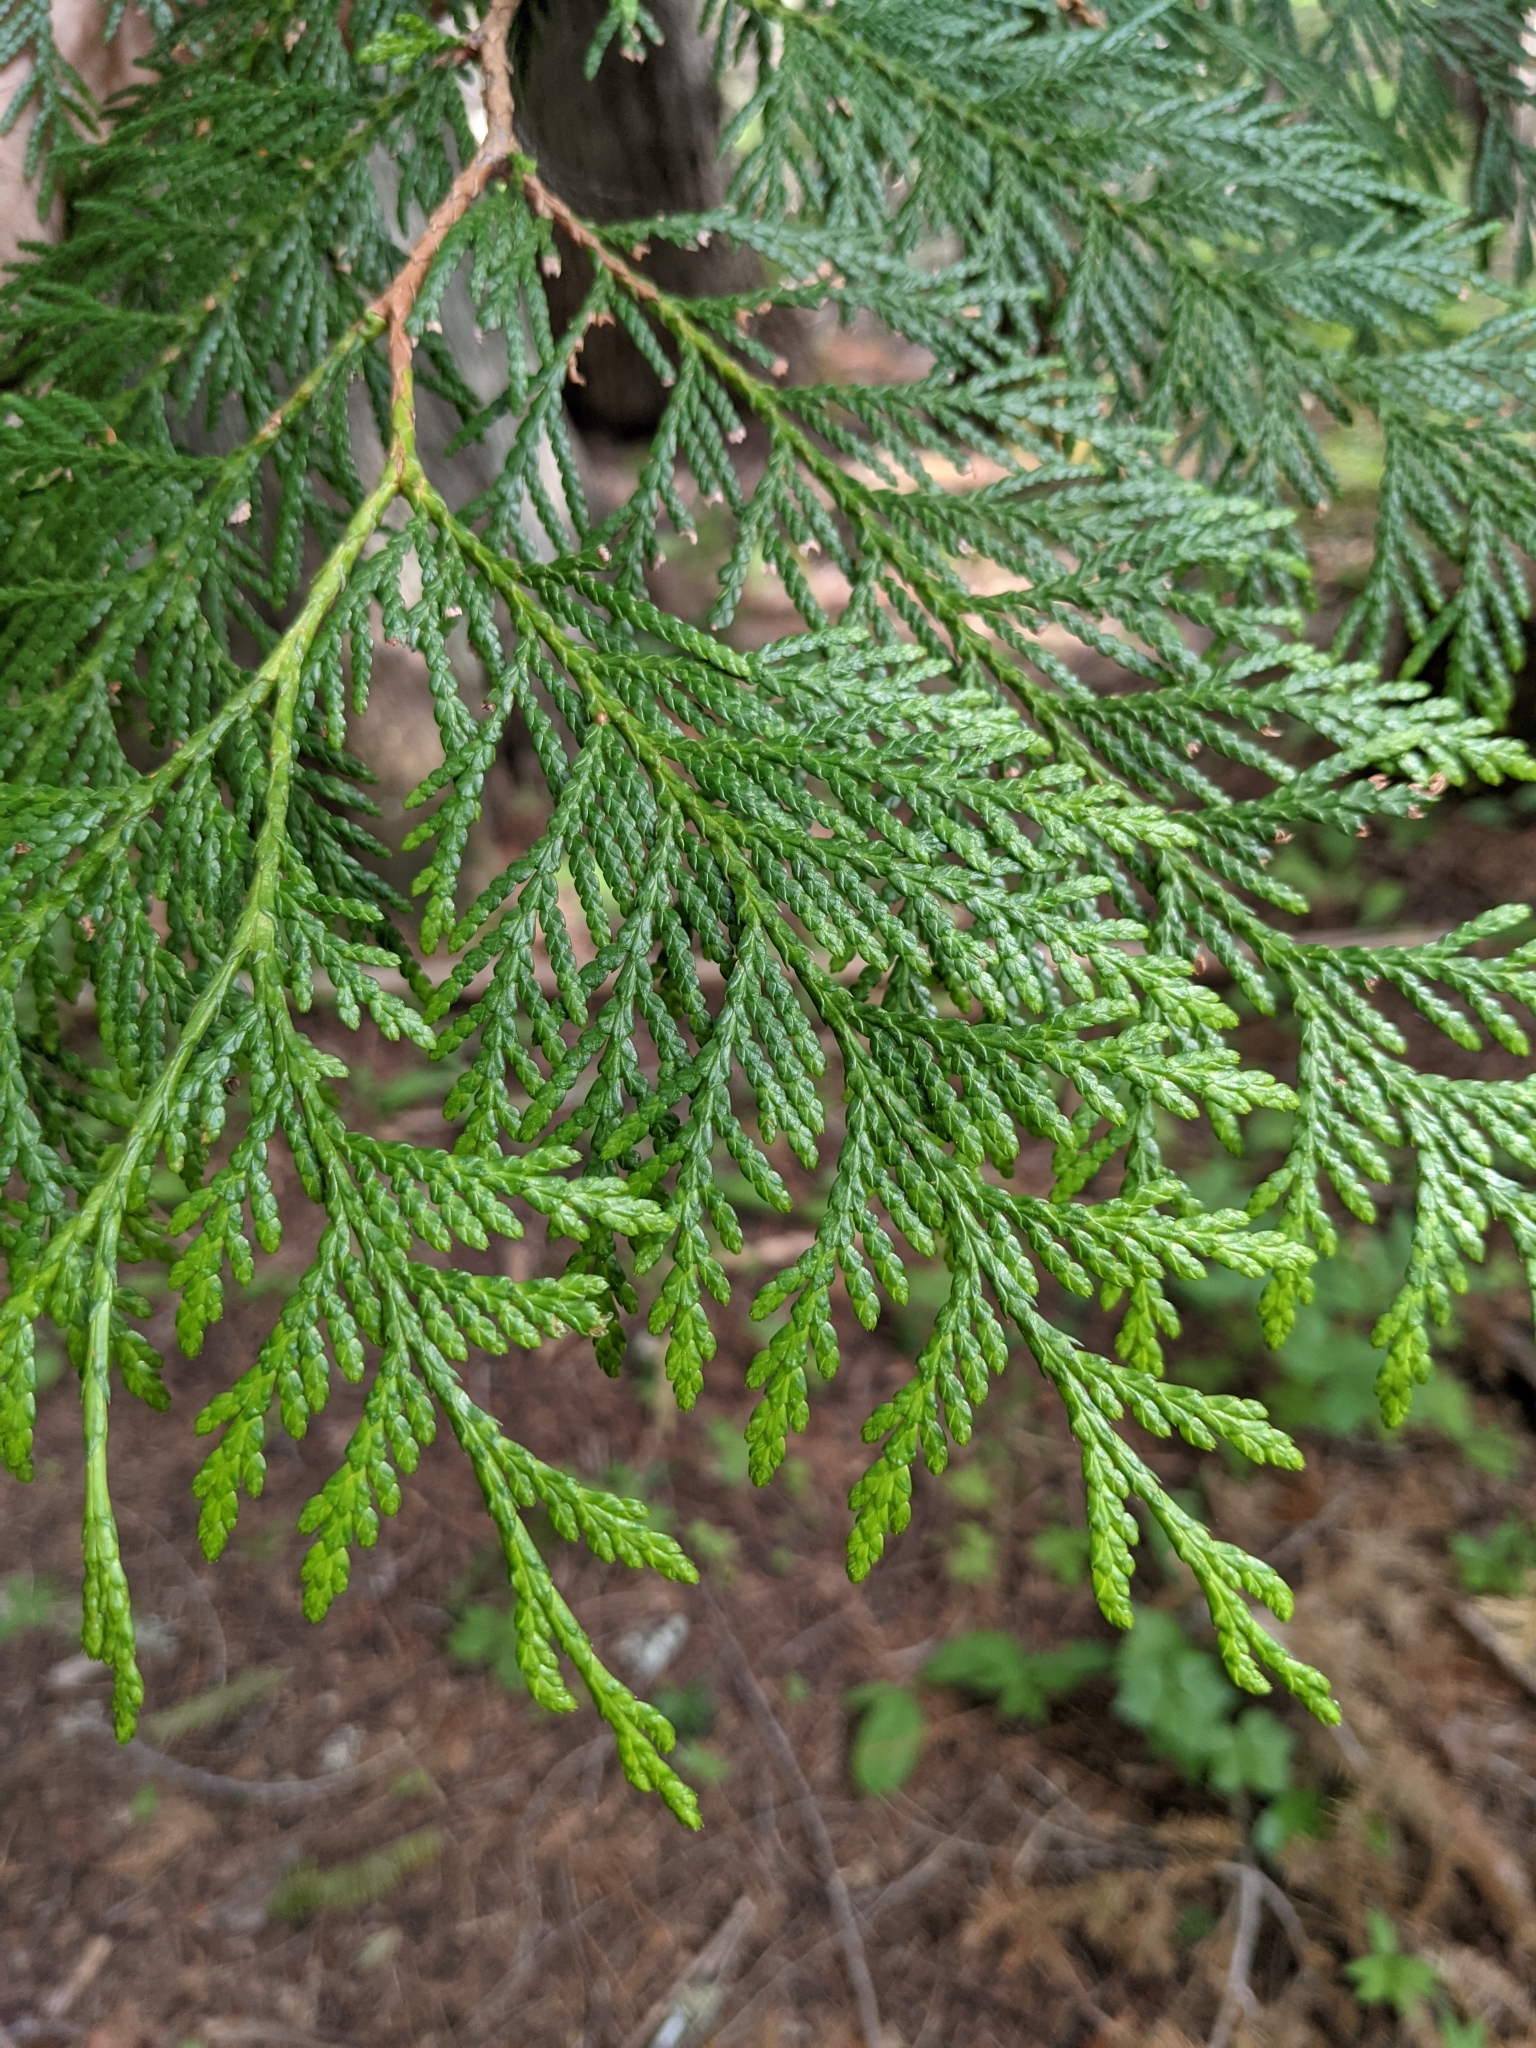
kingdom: Plantae
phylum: Tracheophyta
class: Pinopsida
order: Pinales
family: Cupressaceae
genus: Thuja
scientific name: Thuja plicata
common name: Western red-cedar
